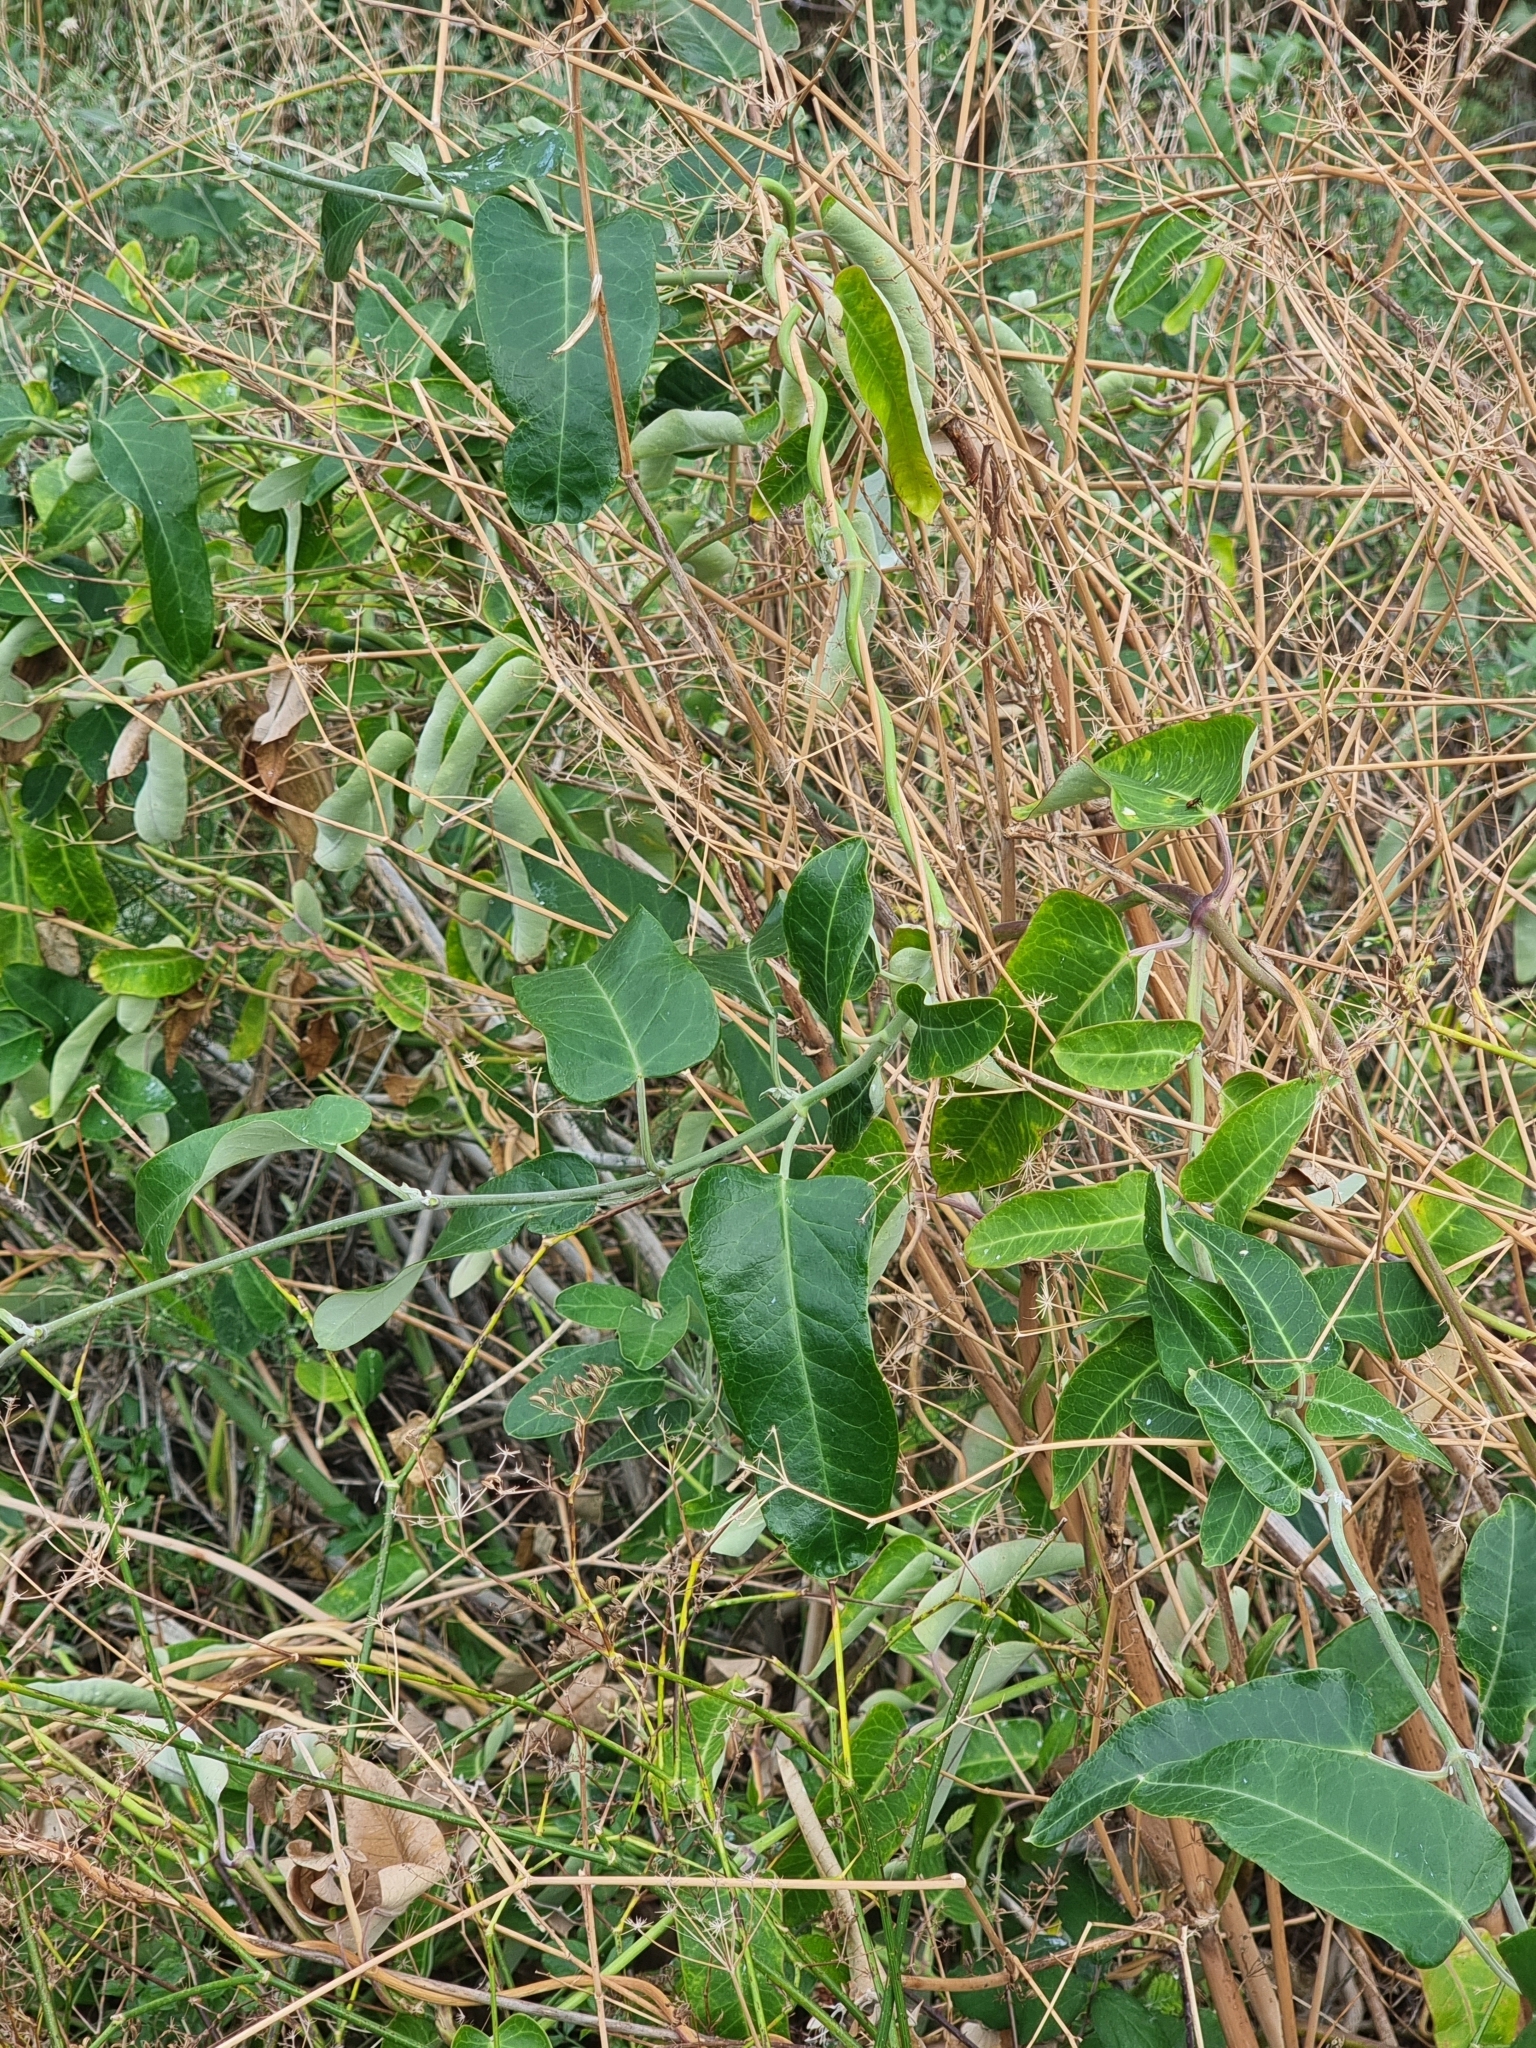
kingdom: Plantae
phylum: Tracheophyta
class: Magnoliopsida
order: Gentianales
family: Apocynaceae
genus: Araujia
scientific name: Araujia sericifera
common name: White bladderflower
